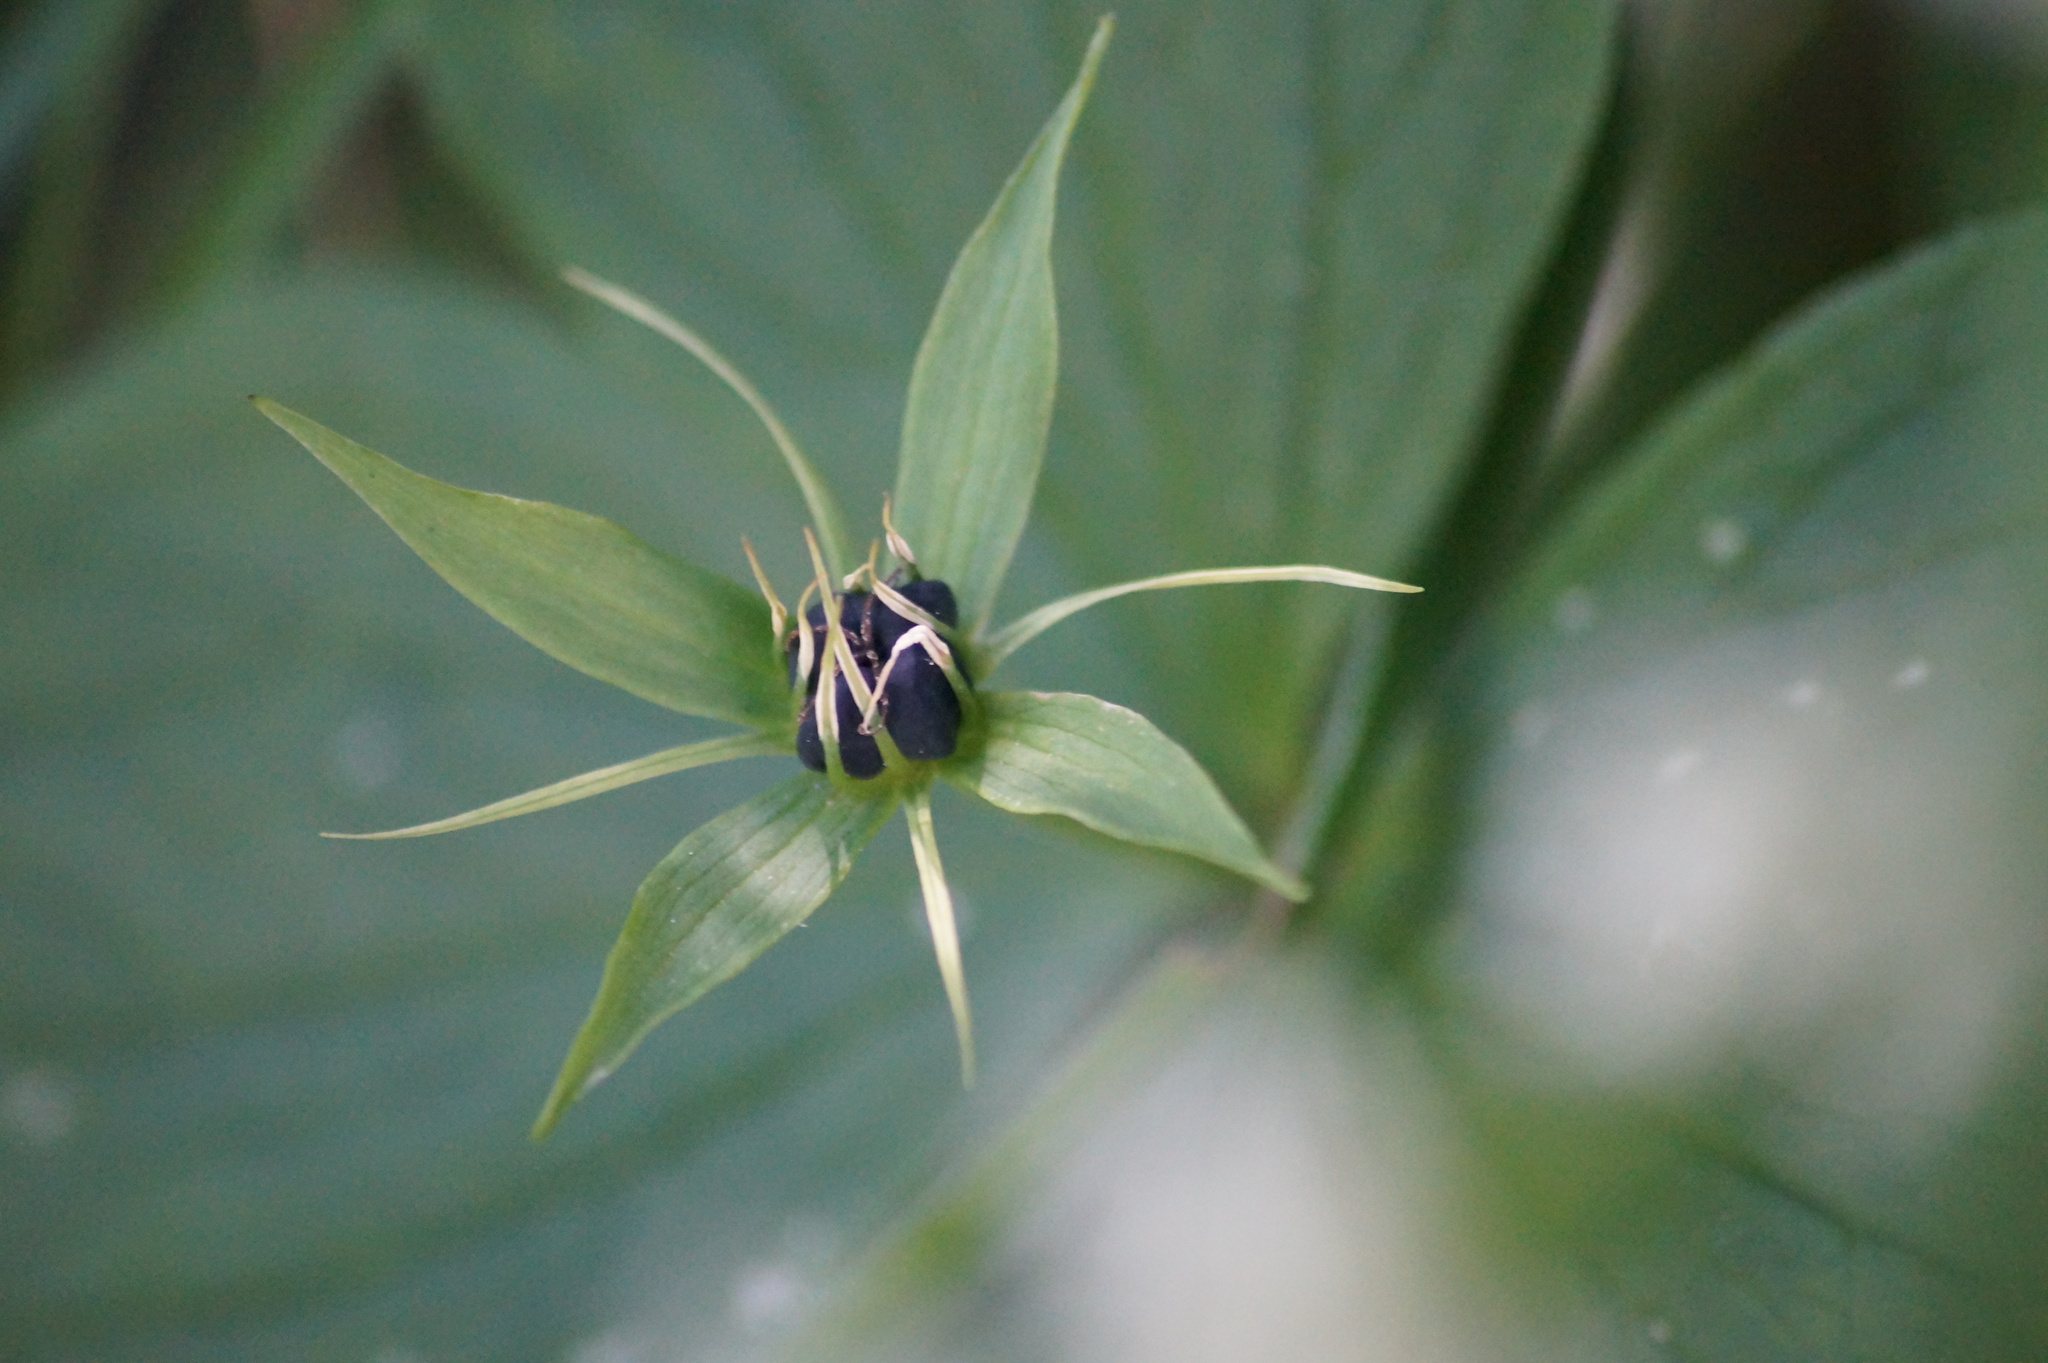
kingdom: Plantae
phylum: Tracheophyta
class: Liliopsida
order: Liliales
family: Melanthiaceae
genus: Paris
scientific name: Paris quadrifolia
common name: Herb-paris
